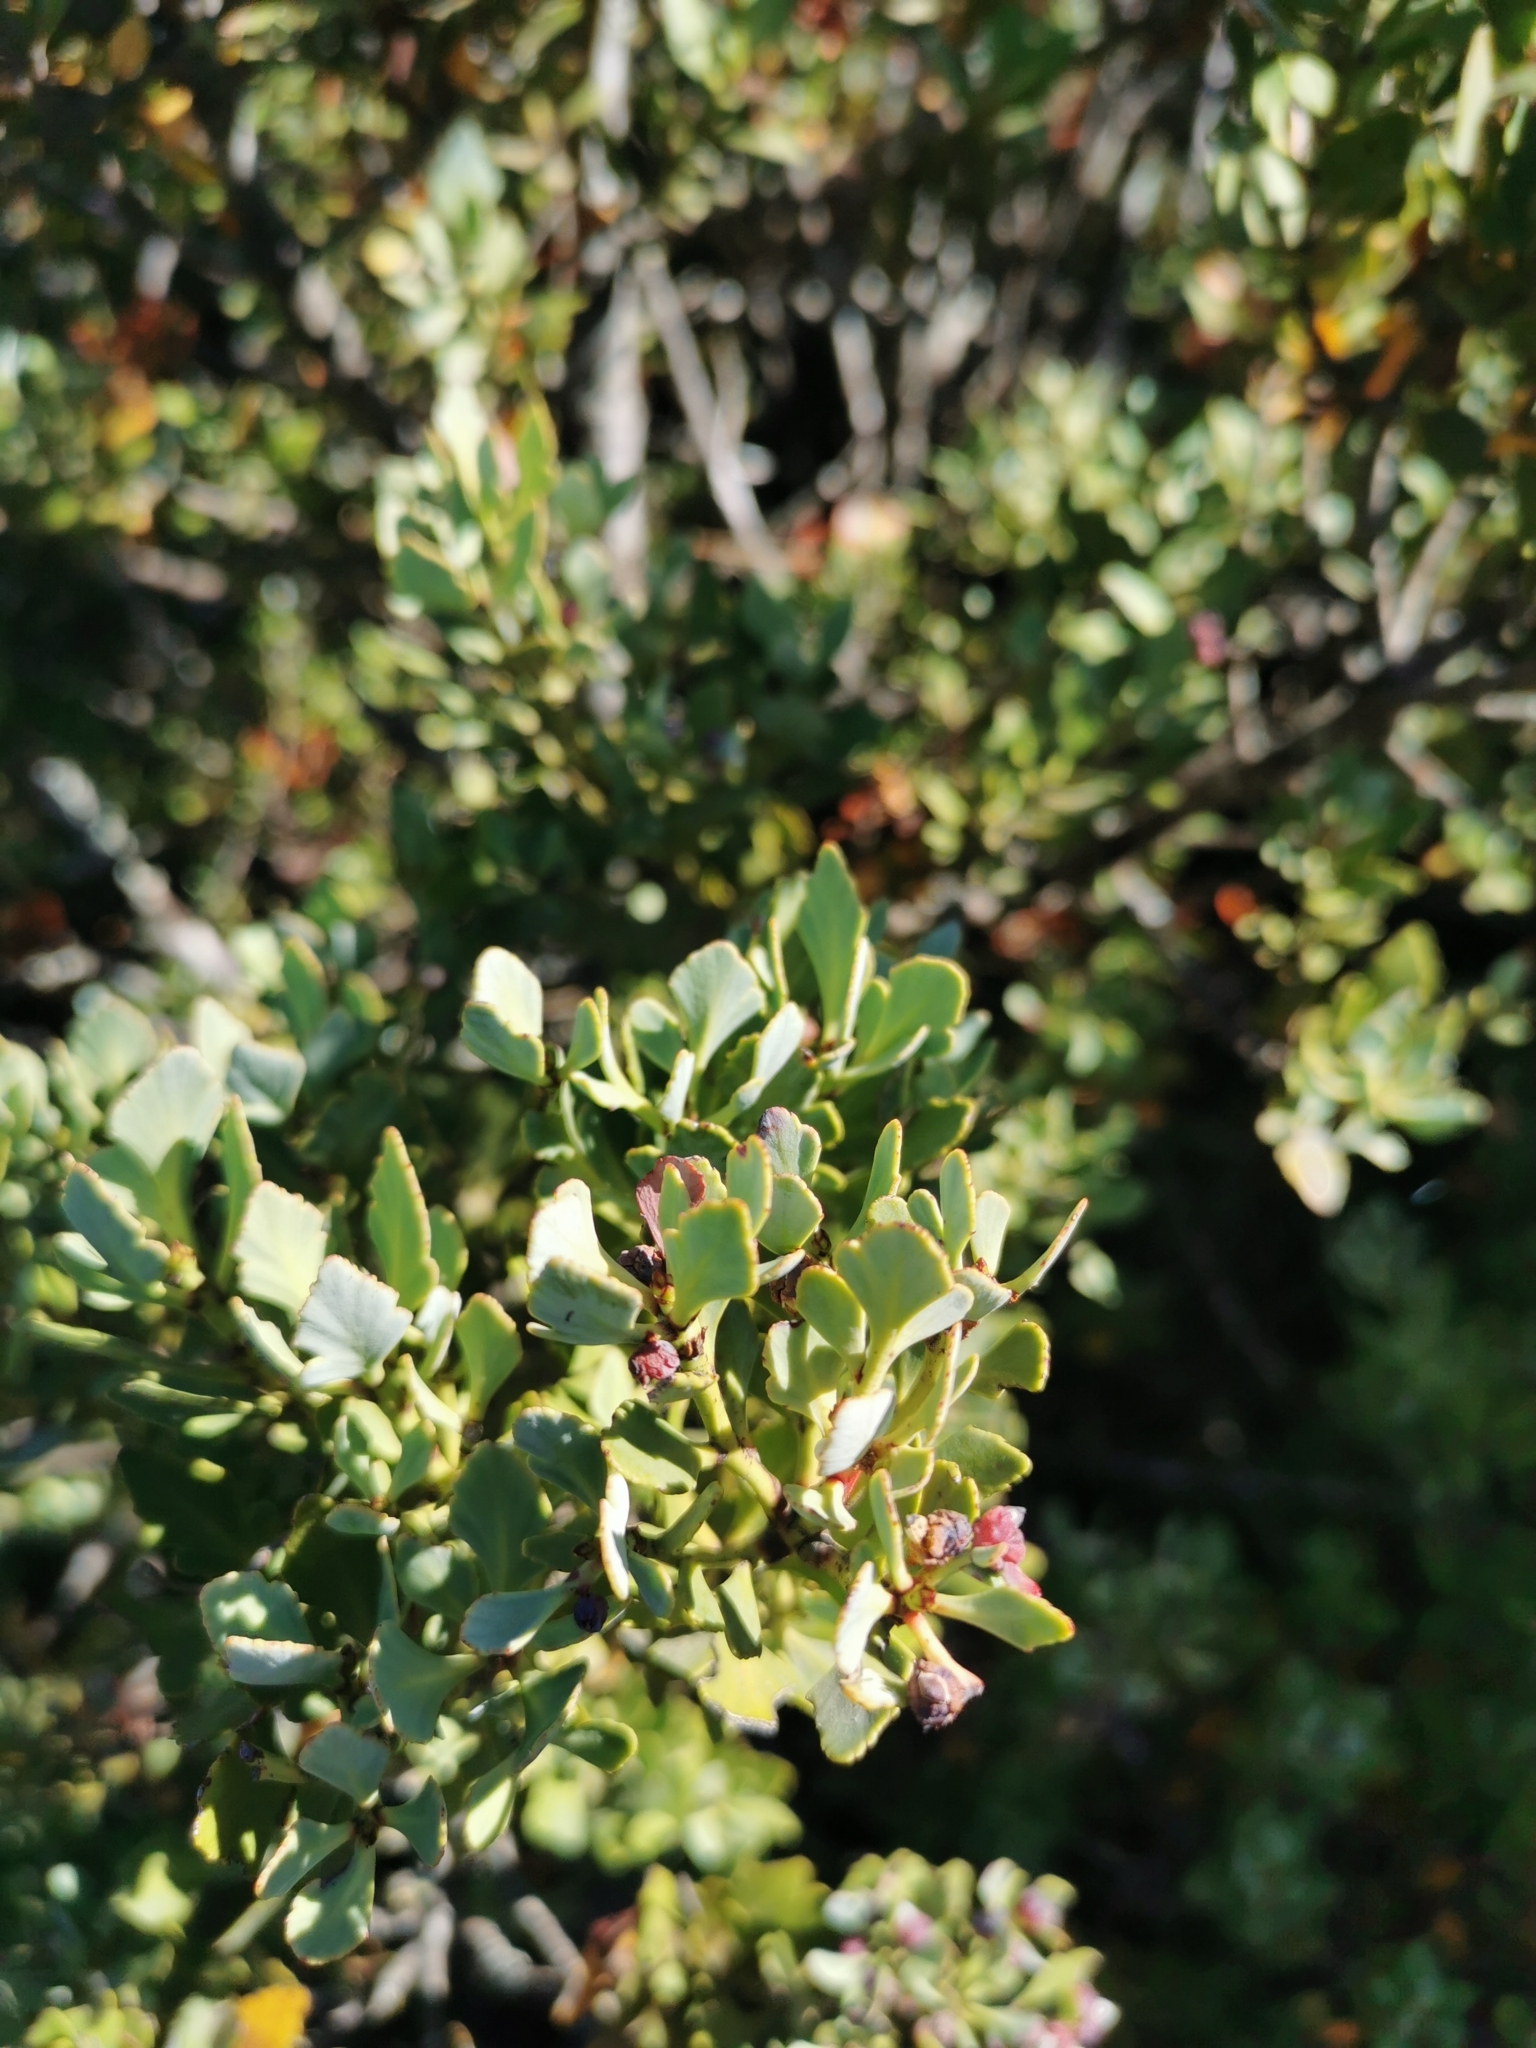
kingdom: Plantae
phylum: Tracheophyta
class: Pinopsida
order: Pinales
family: Phyllocladaceae
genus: Phyllocladus
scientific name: Phyllocladus trichomanoides
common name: Celery pine
